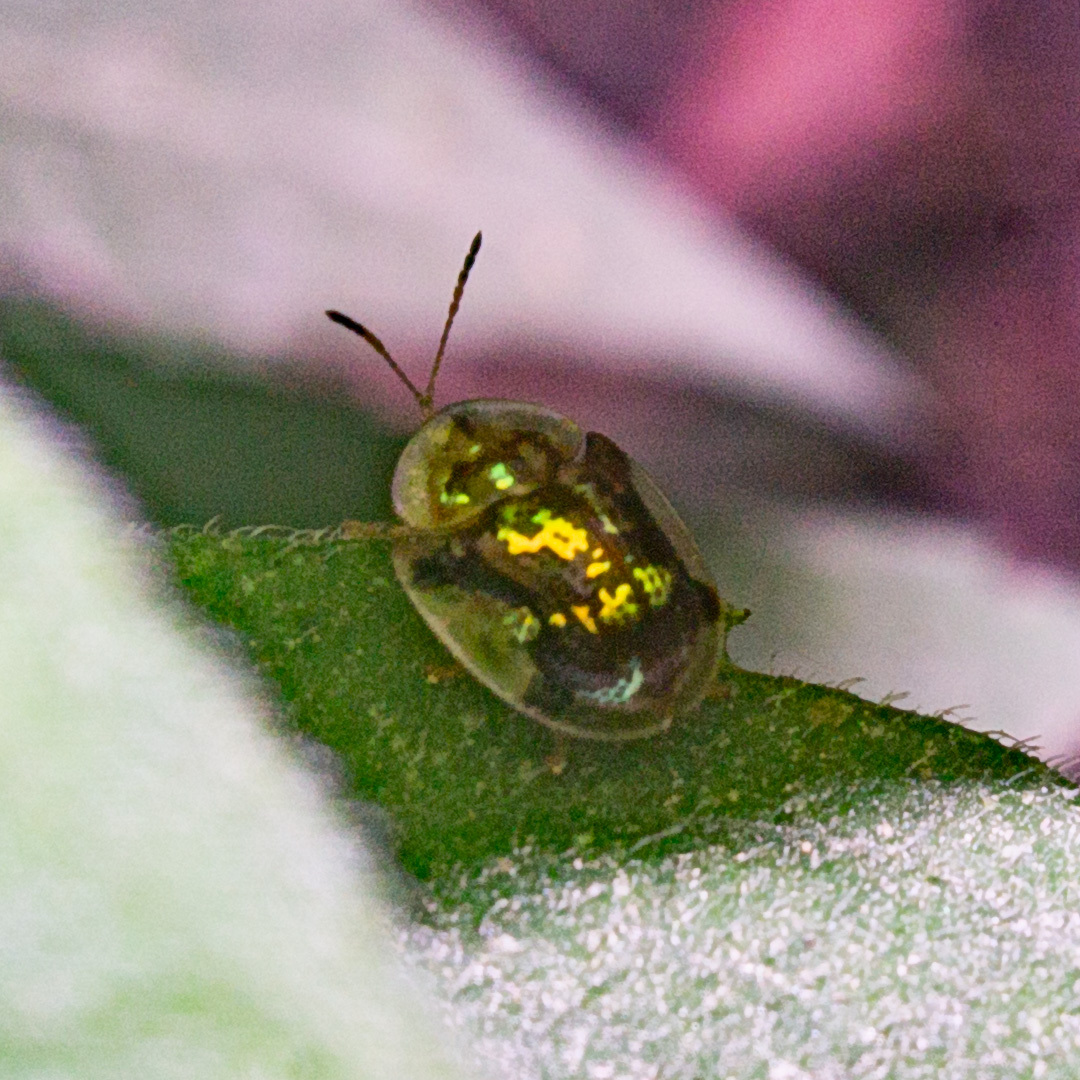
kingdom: Animalia
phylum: Arthropoda
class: Insecta
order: Coleoptera
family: Chrysomelidae
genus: Deloyala
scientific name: Deloyala insubida
